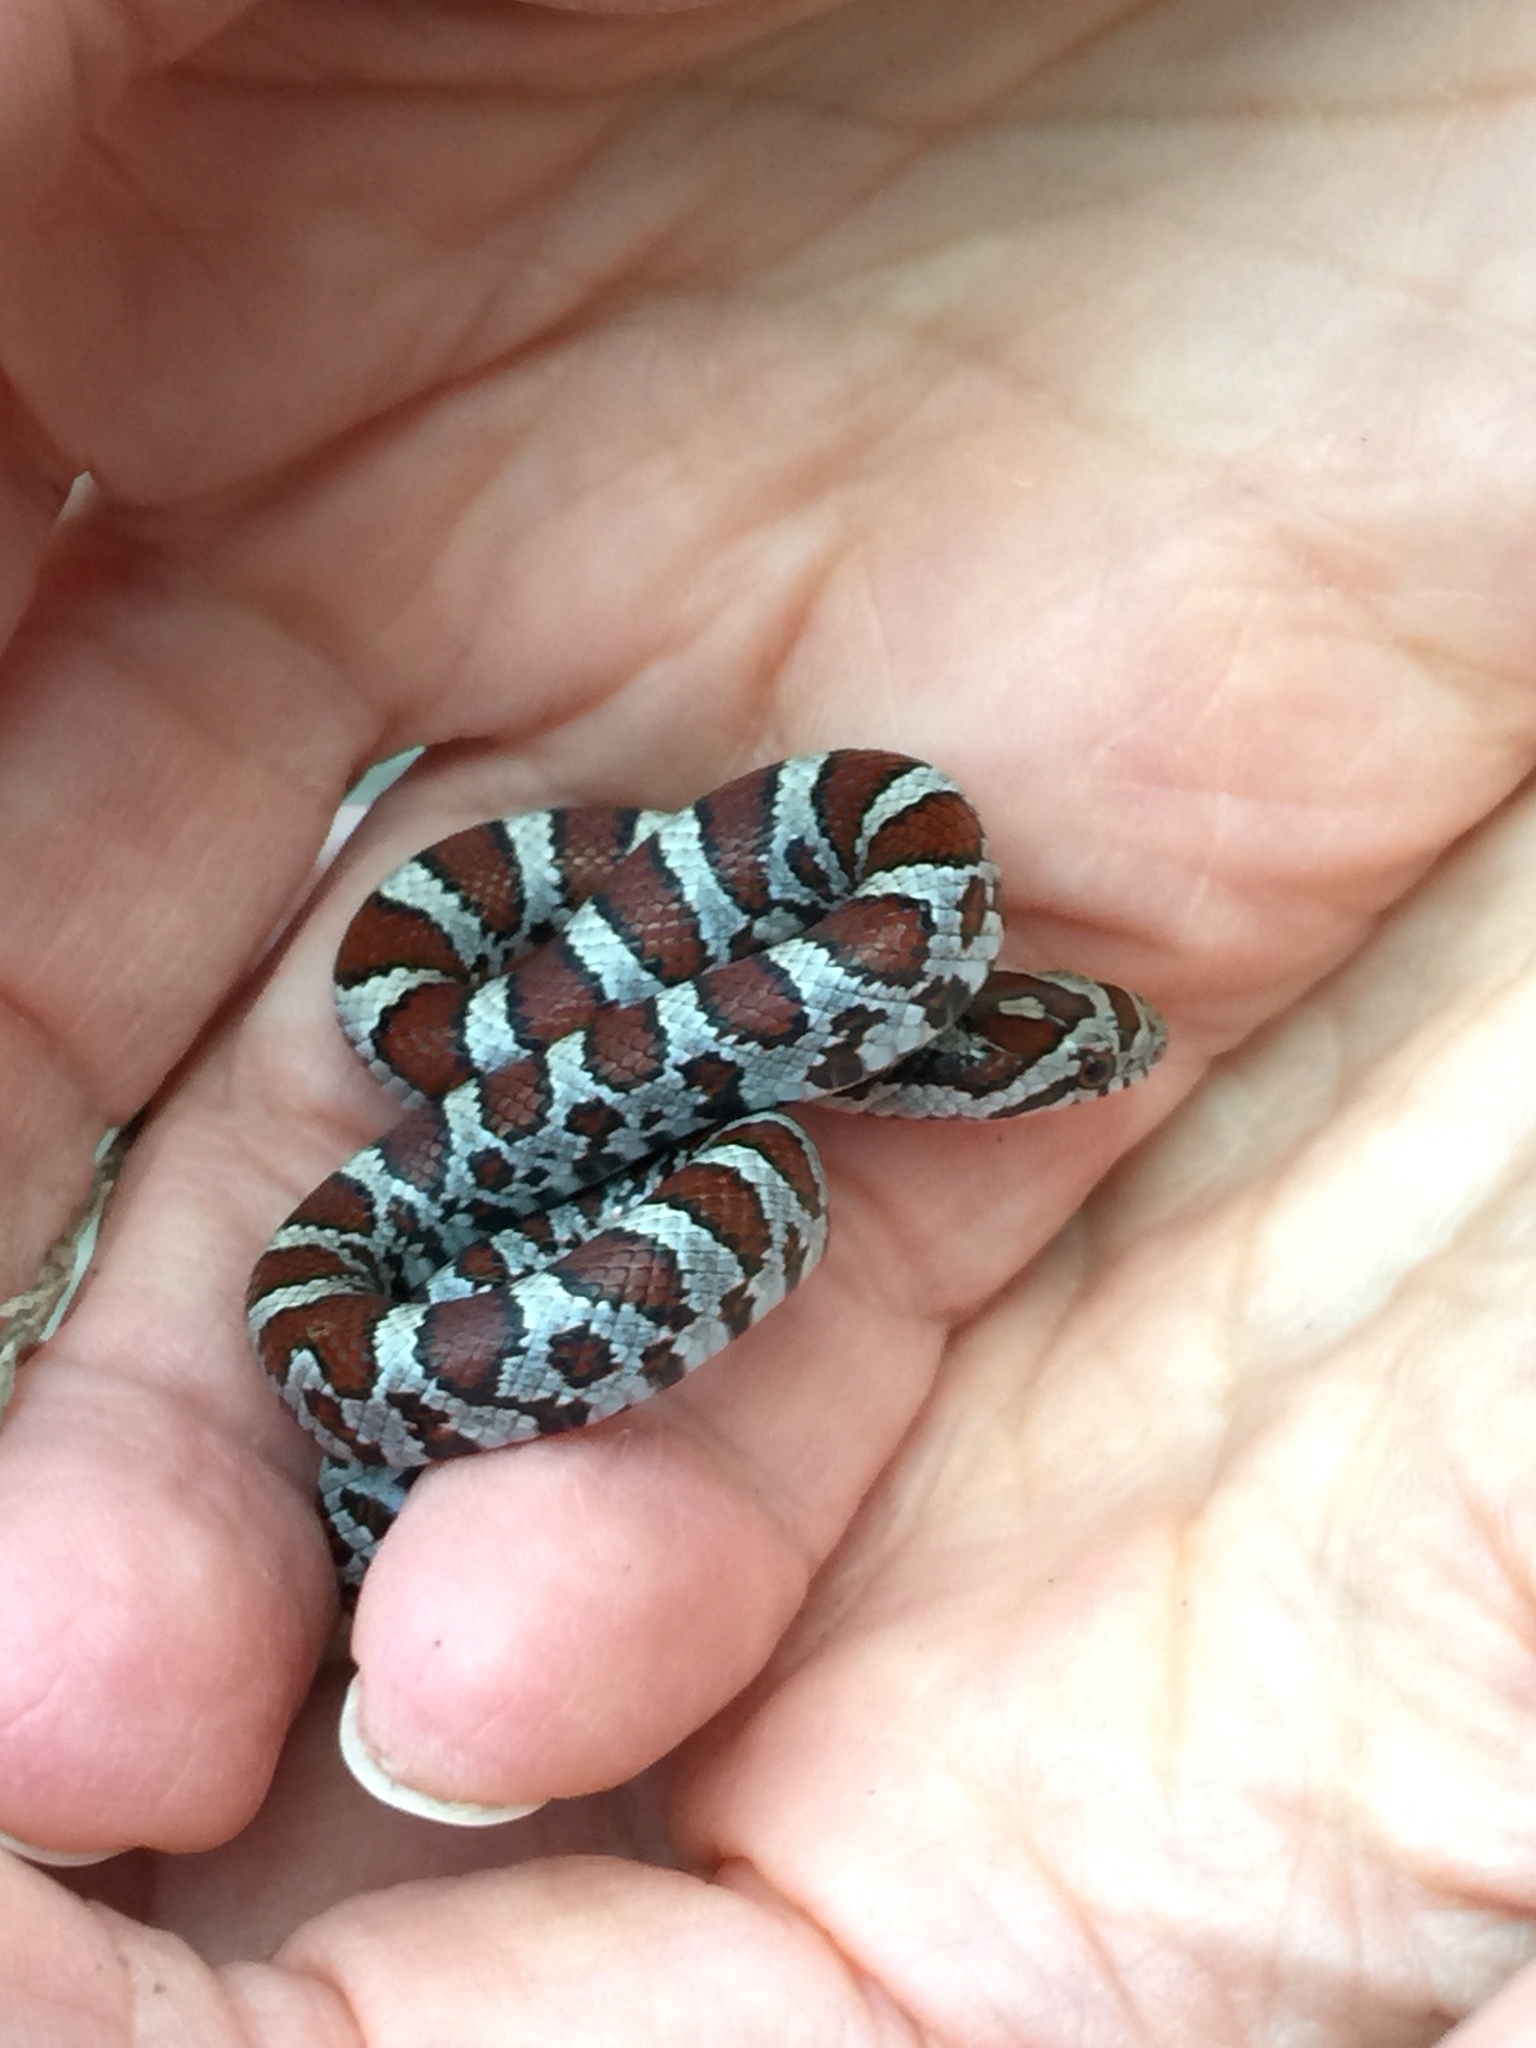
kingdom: Animalia
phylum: Chordata
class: Squamata
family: Colubridae
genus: Lampropeltis
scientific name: Lampropeltis triangulum
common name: Eastern milksnake
